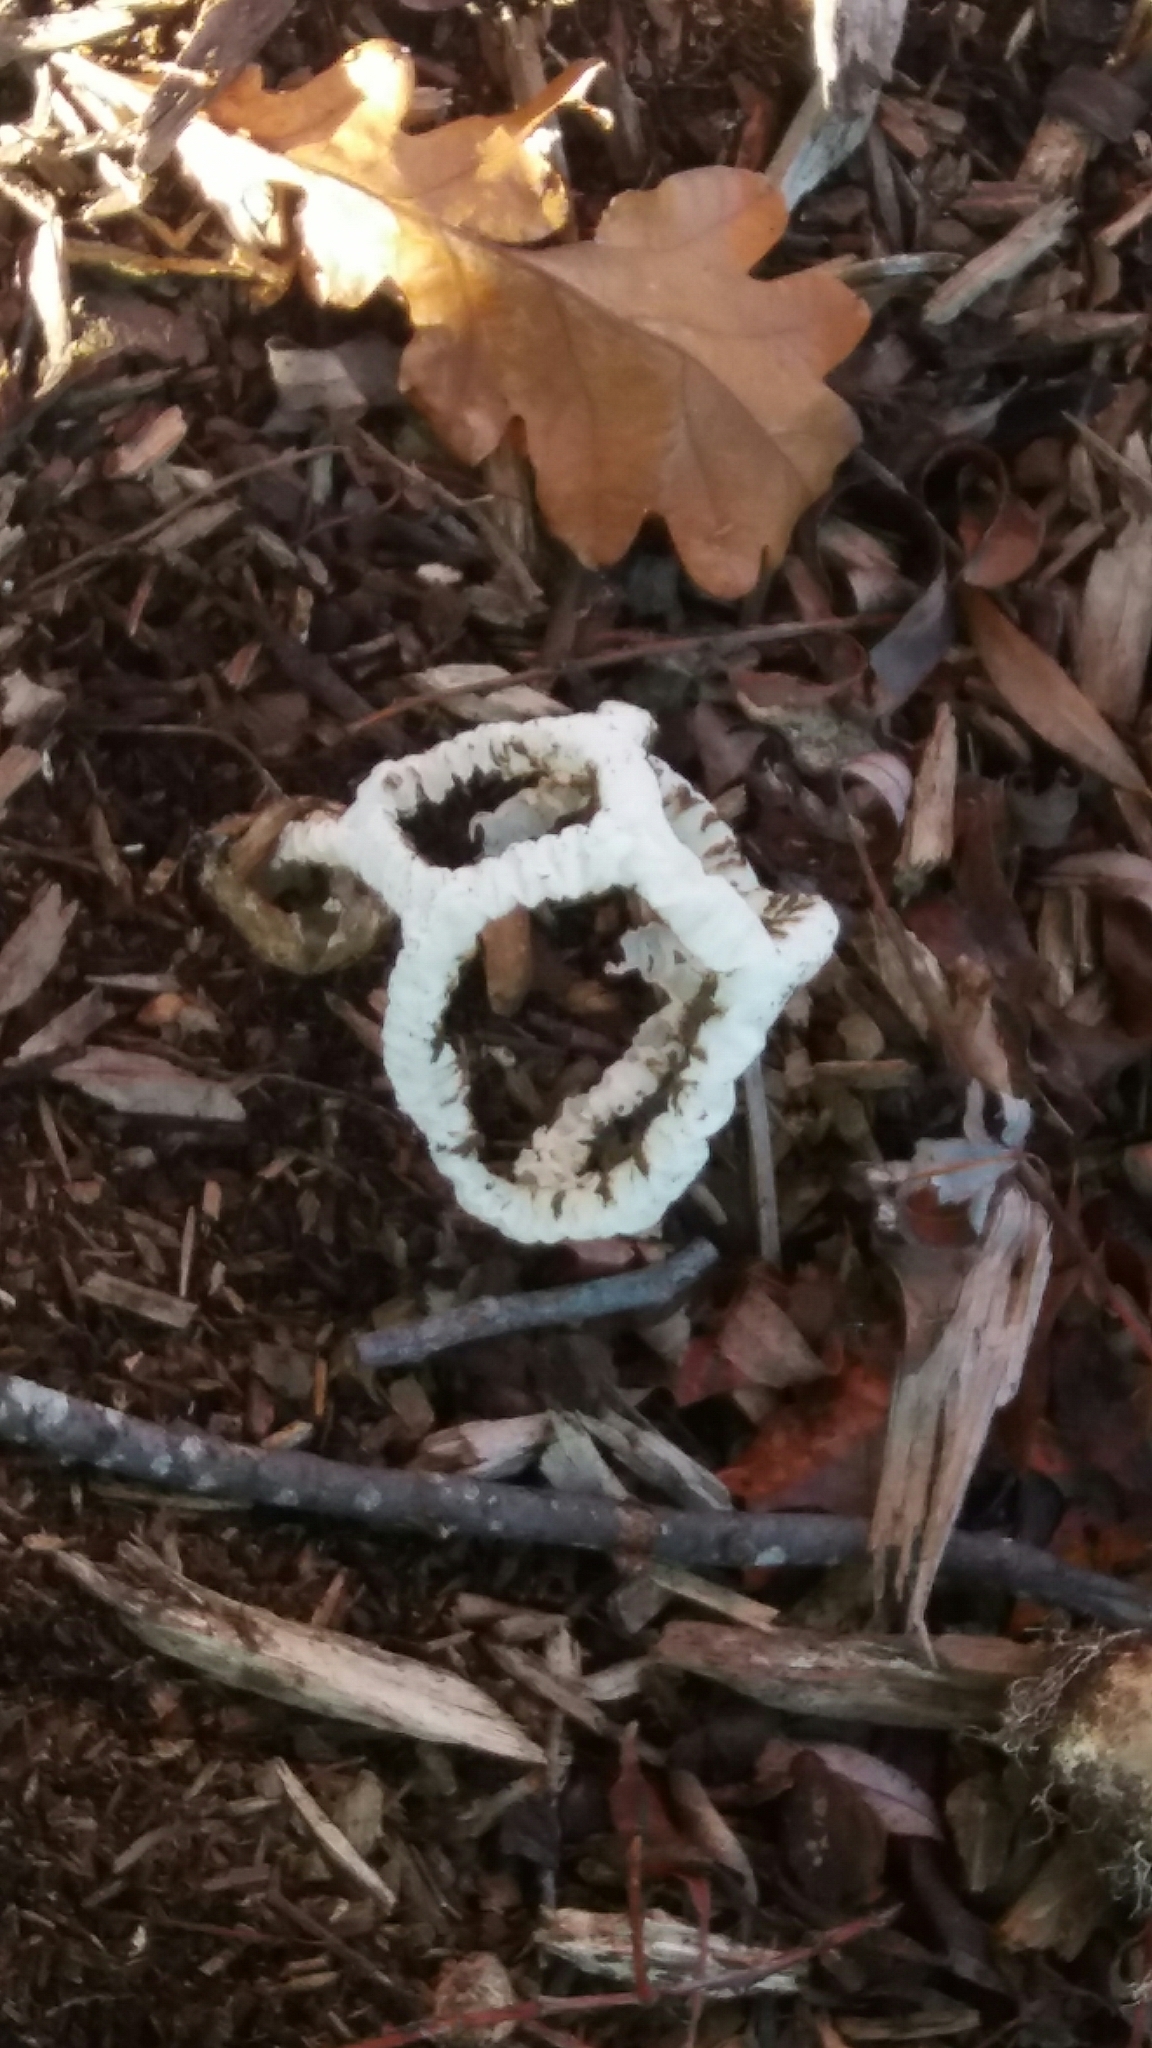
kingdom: Fungi
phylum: Basidiomycota
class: Agaricomycetes
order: Phallales
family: Phallaceae
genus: Ileodictyon
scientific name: Ileodictyon cibarium
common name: Basket fungus
